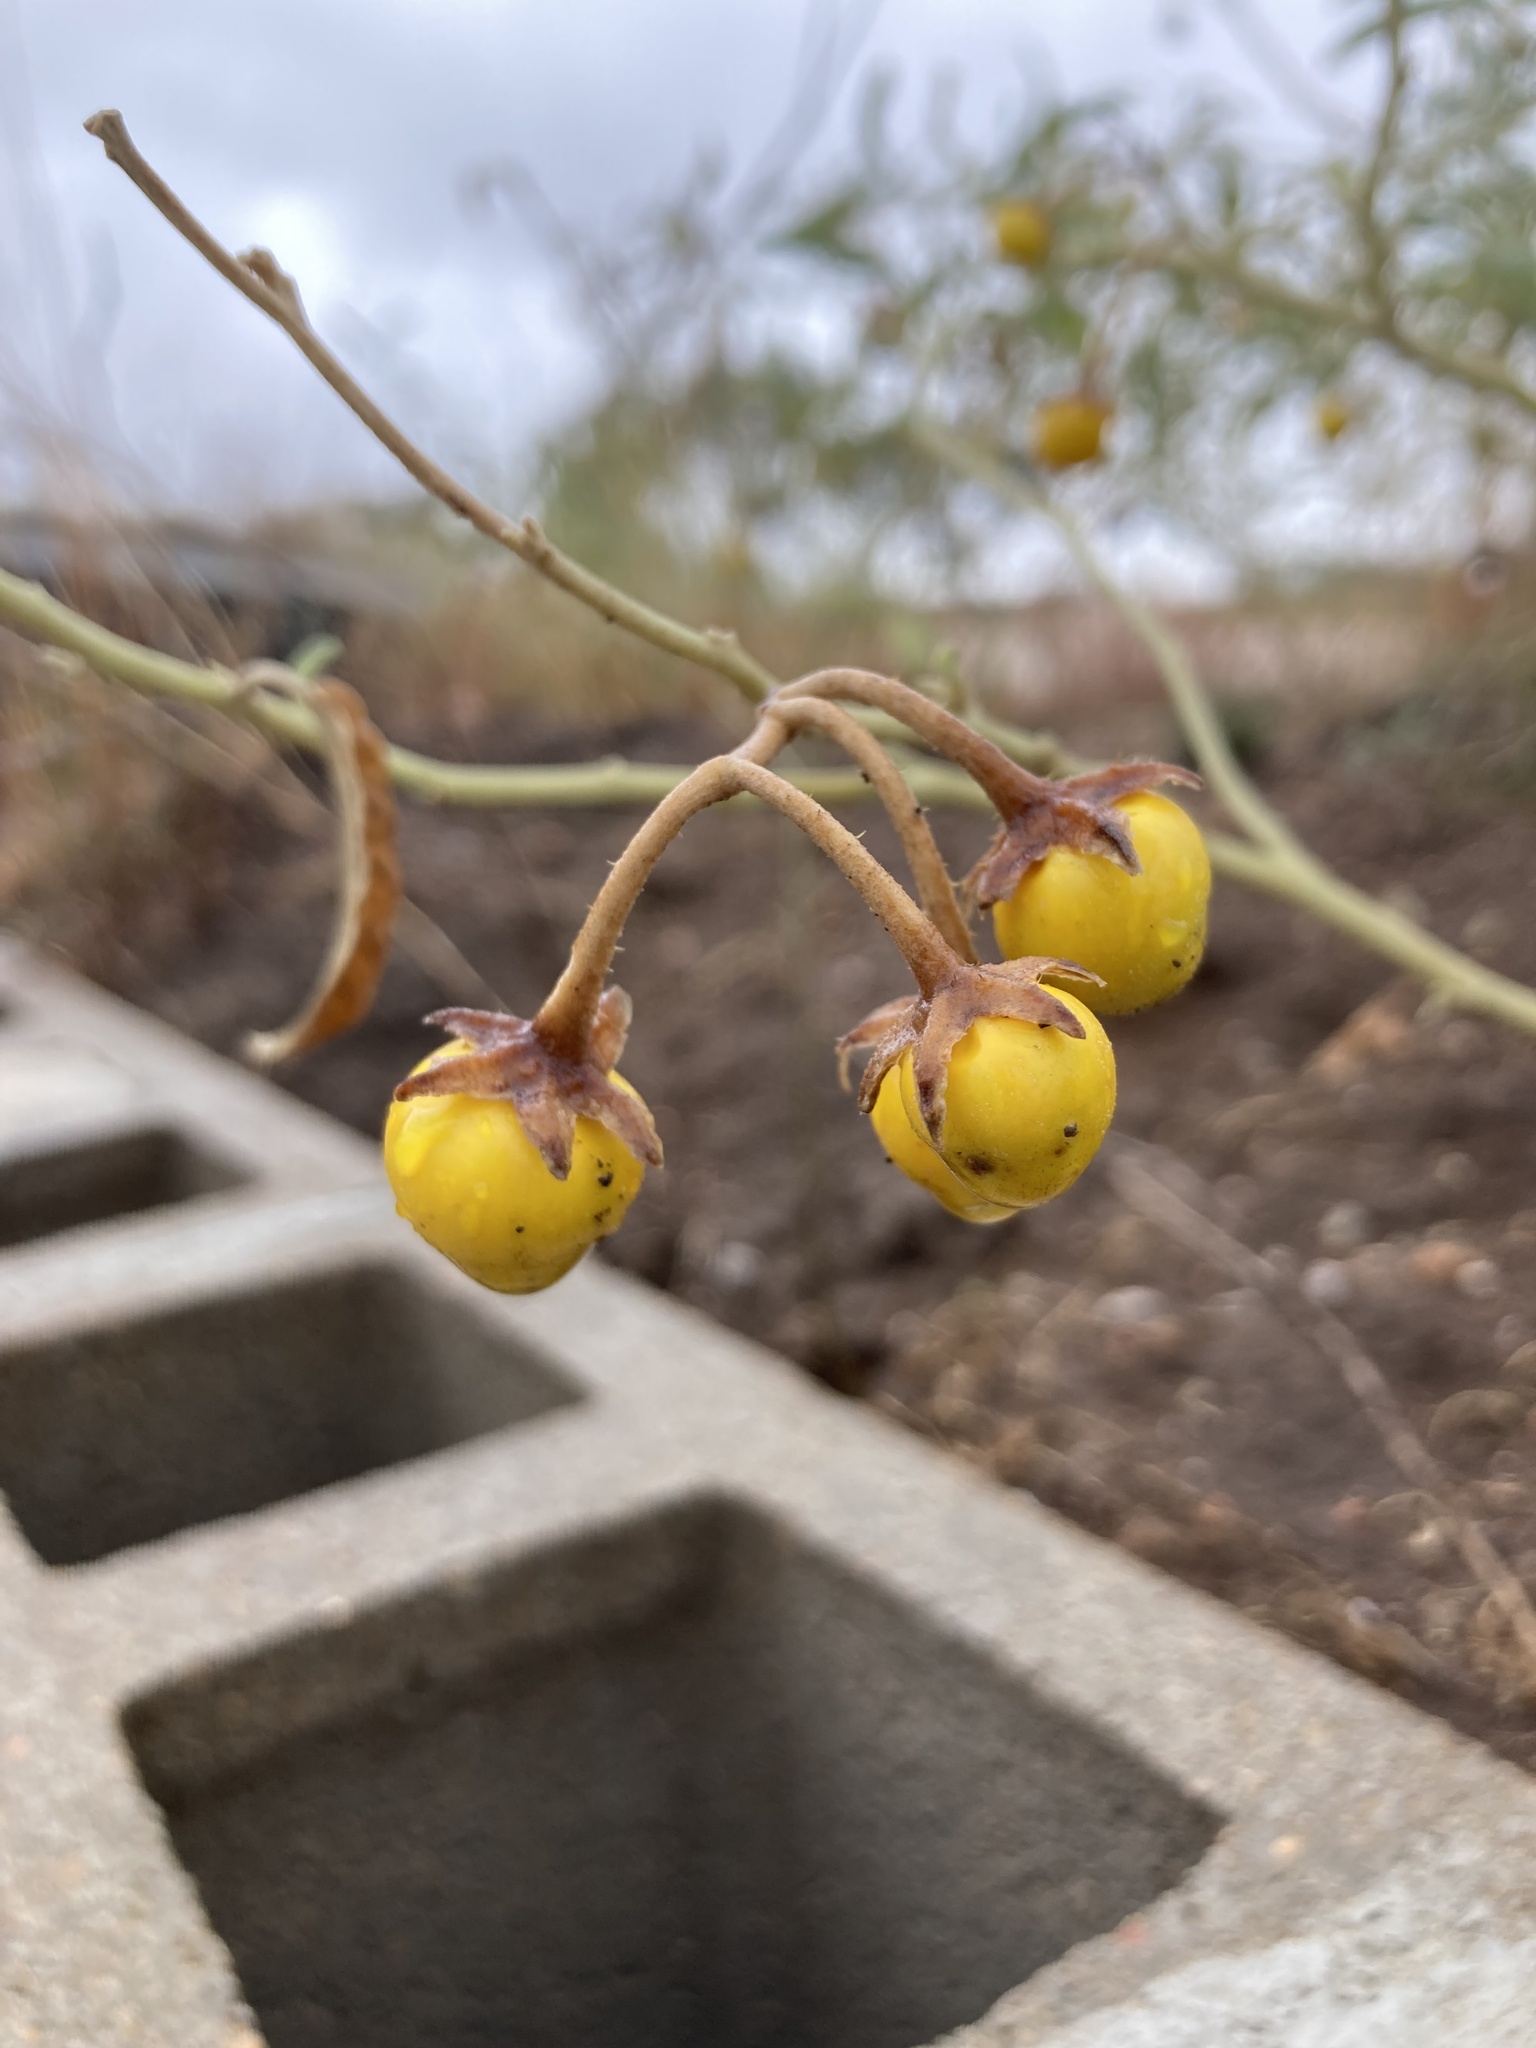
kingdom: Plantae
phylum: Tracheophyta
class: Magnoliopsida
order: Solanales
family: Solanaceae
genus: Solanum
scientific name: Solanum elaeagnifolium
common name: Silverleaf nightshade
